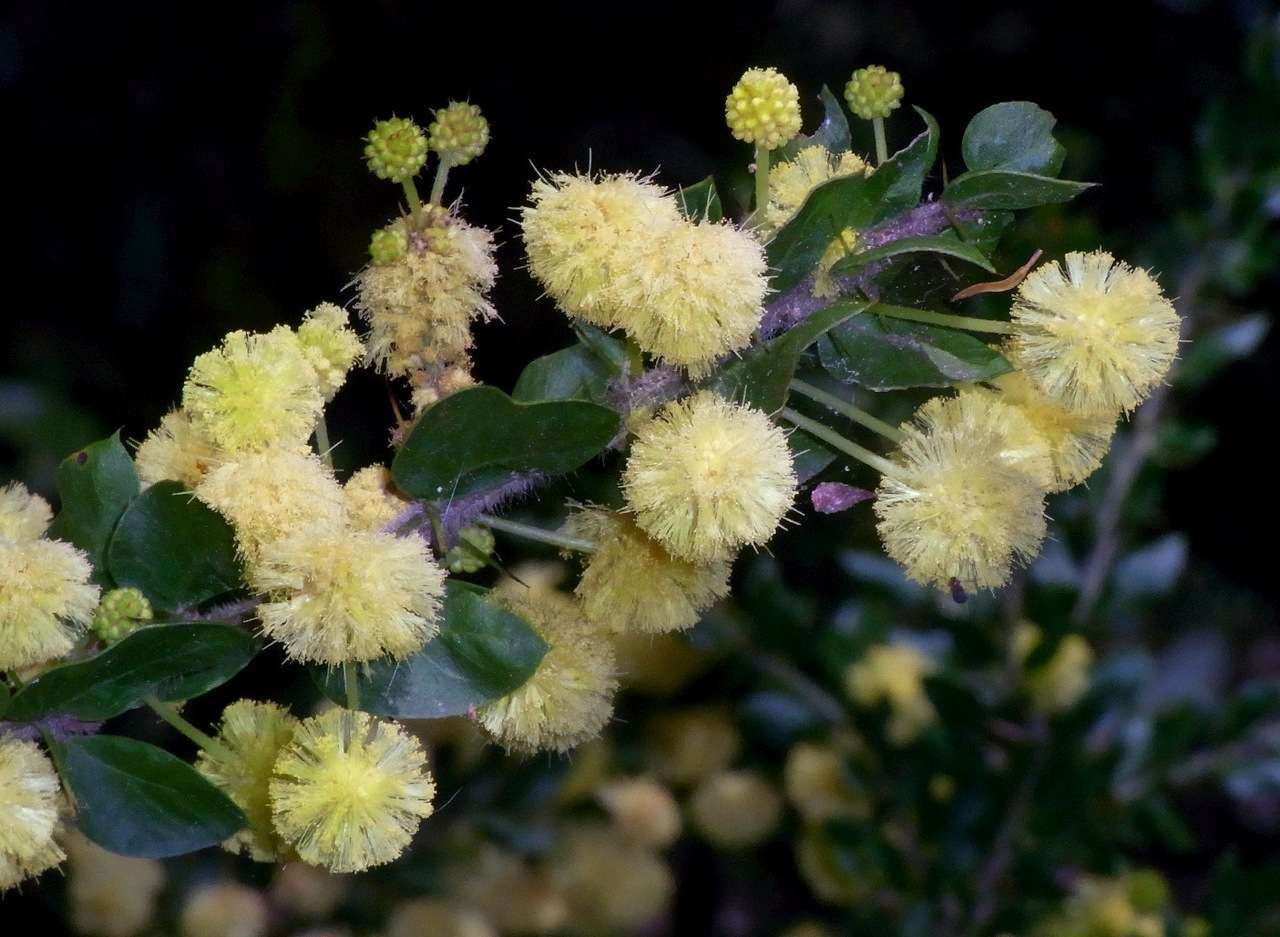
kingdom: Plantae
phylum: Tracheophyta
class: Magnoliopsida
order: Fabales
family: Fabaceae
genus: Acacia
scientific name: Acacia paradoxa
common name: Paradox acacia
